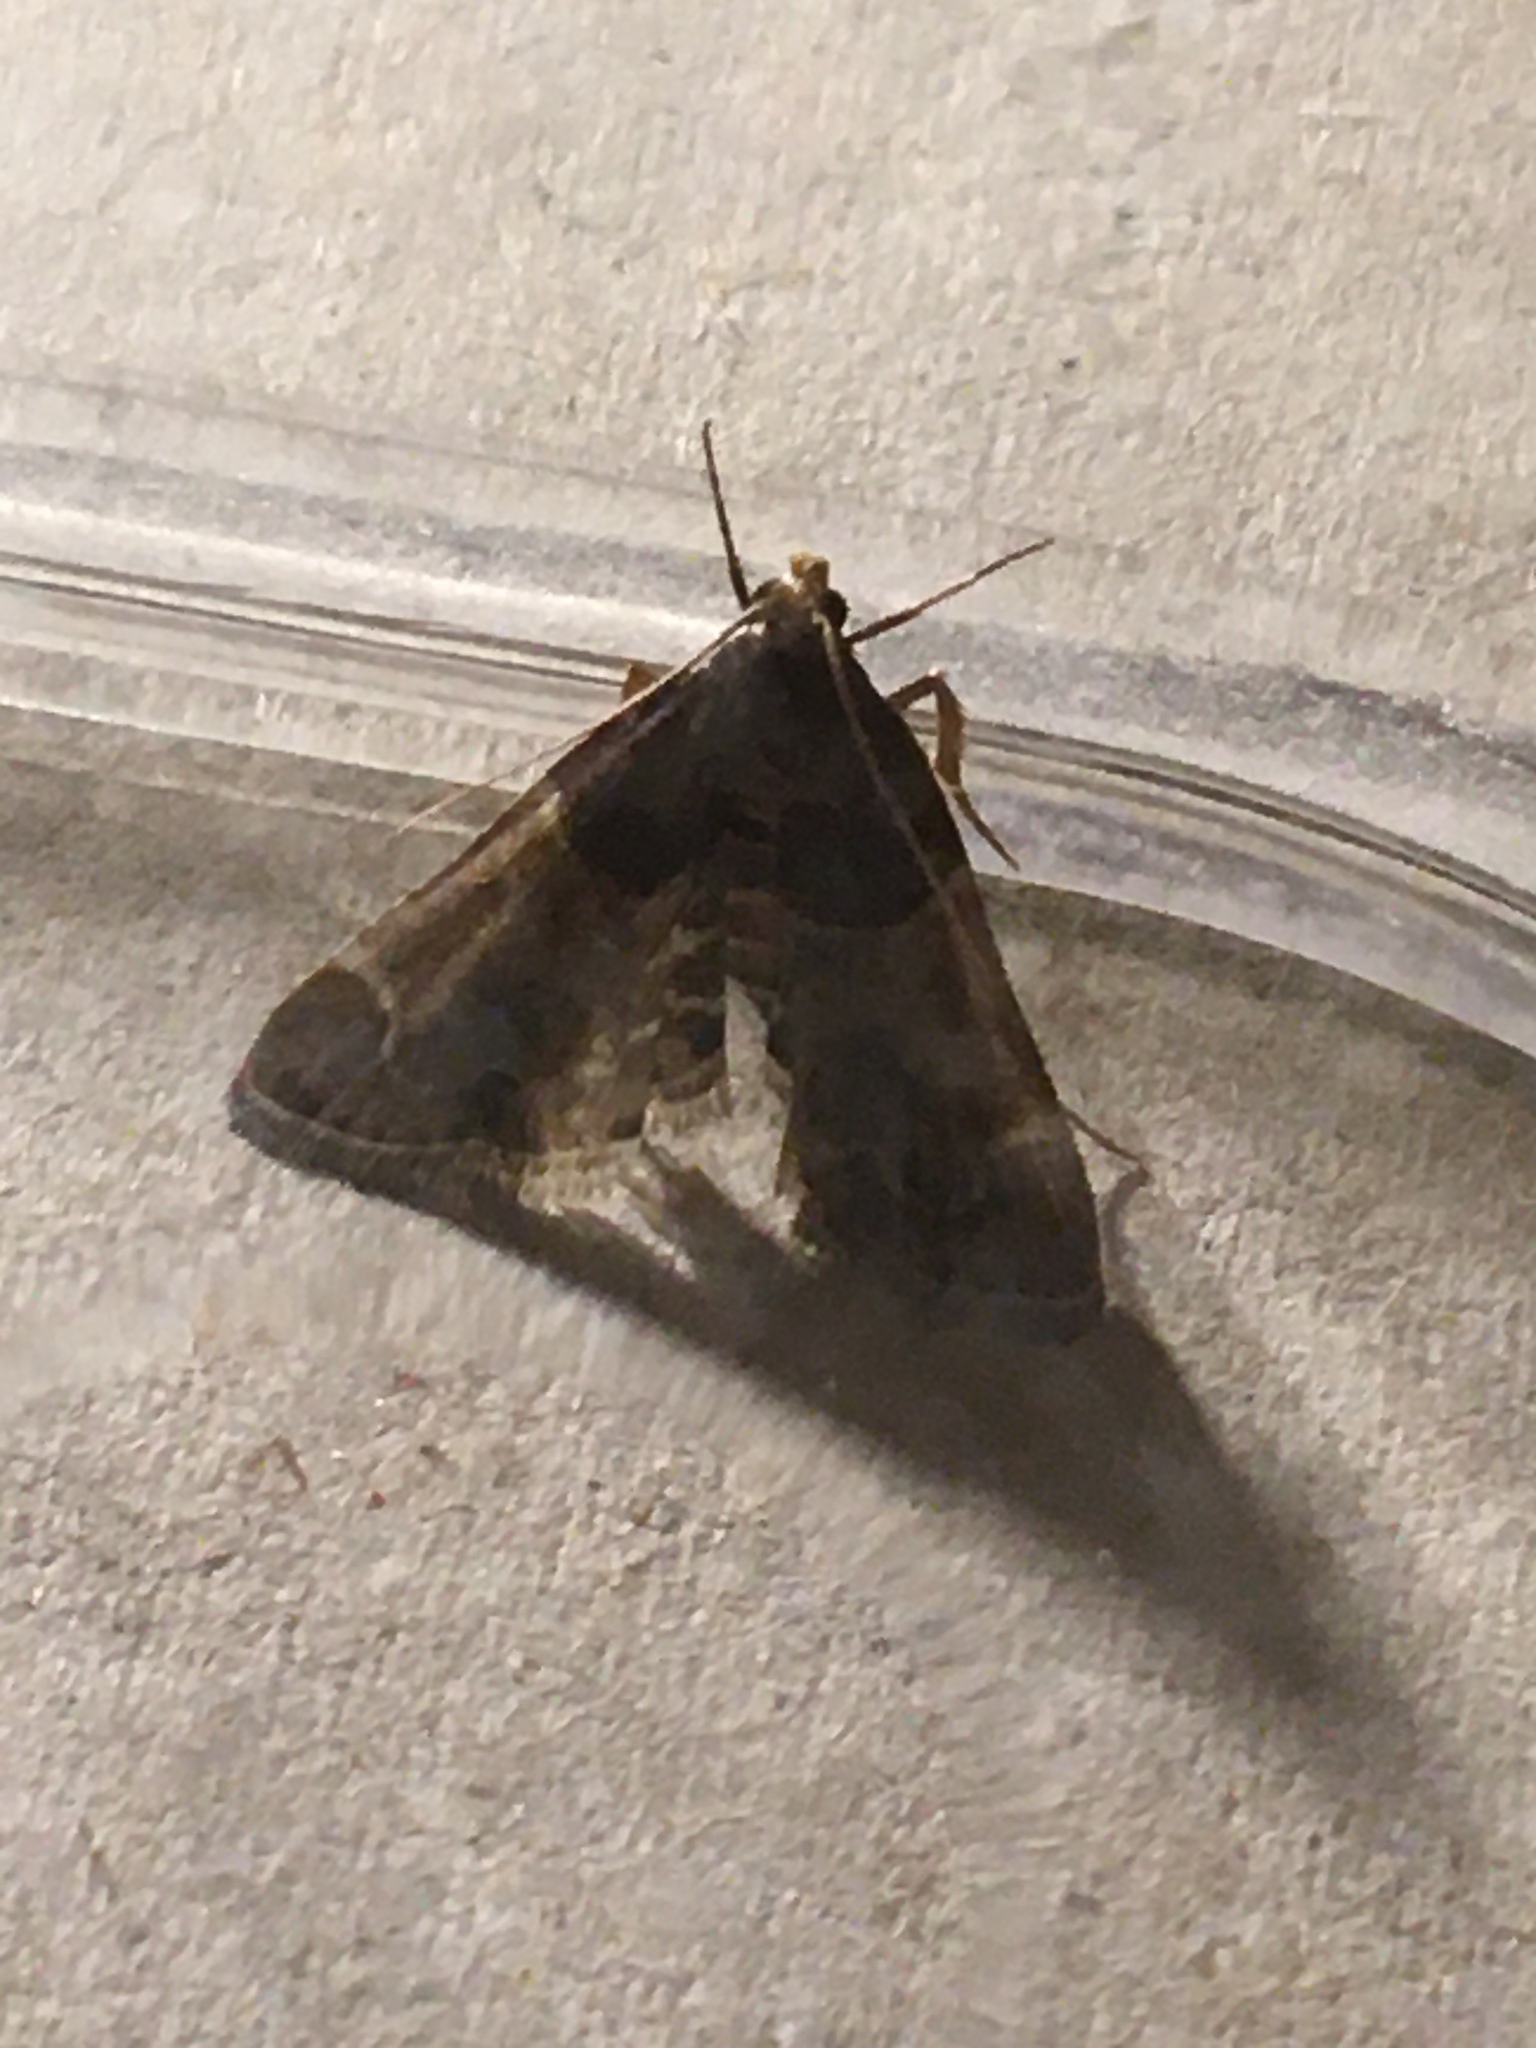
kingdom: Animalia
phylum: Arthropoda
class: Insecta
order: Lepidoptera
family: Pyralidae
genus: Pyralis
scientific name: Pyralis farinalis
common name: Meal moth
